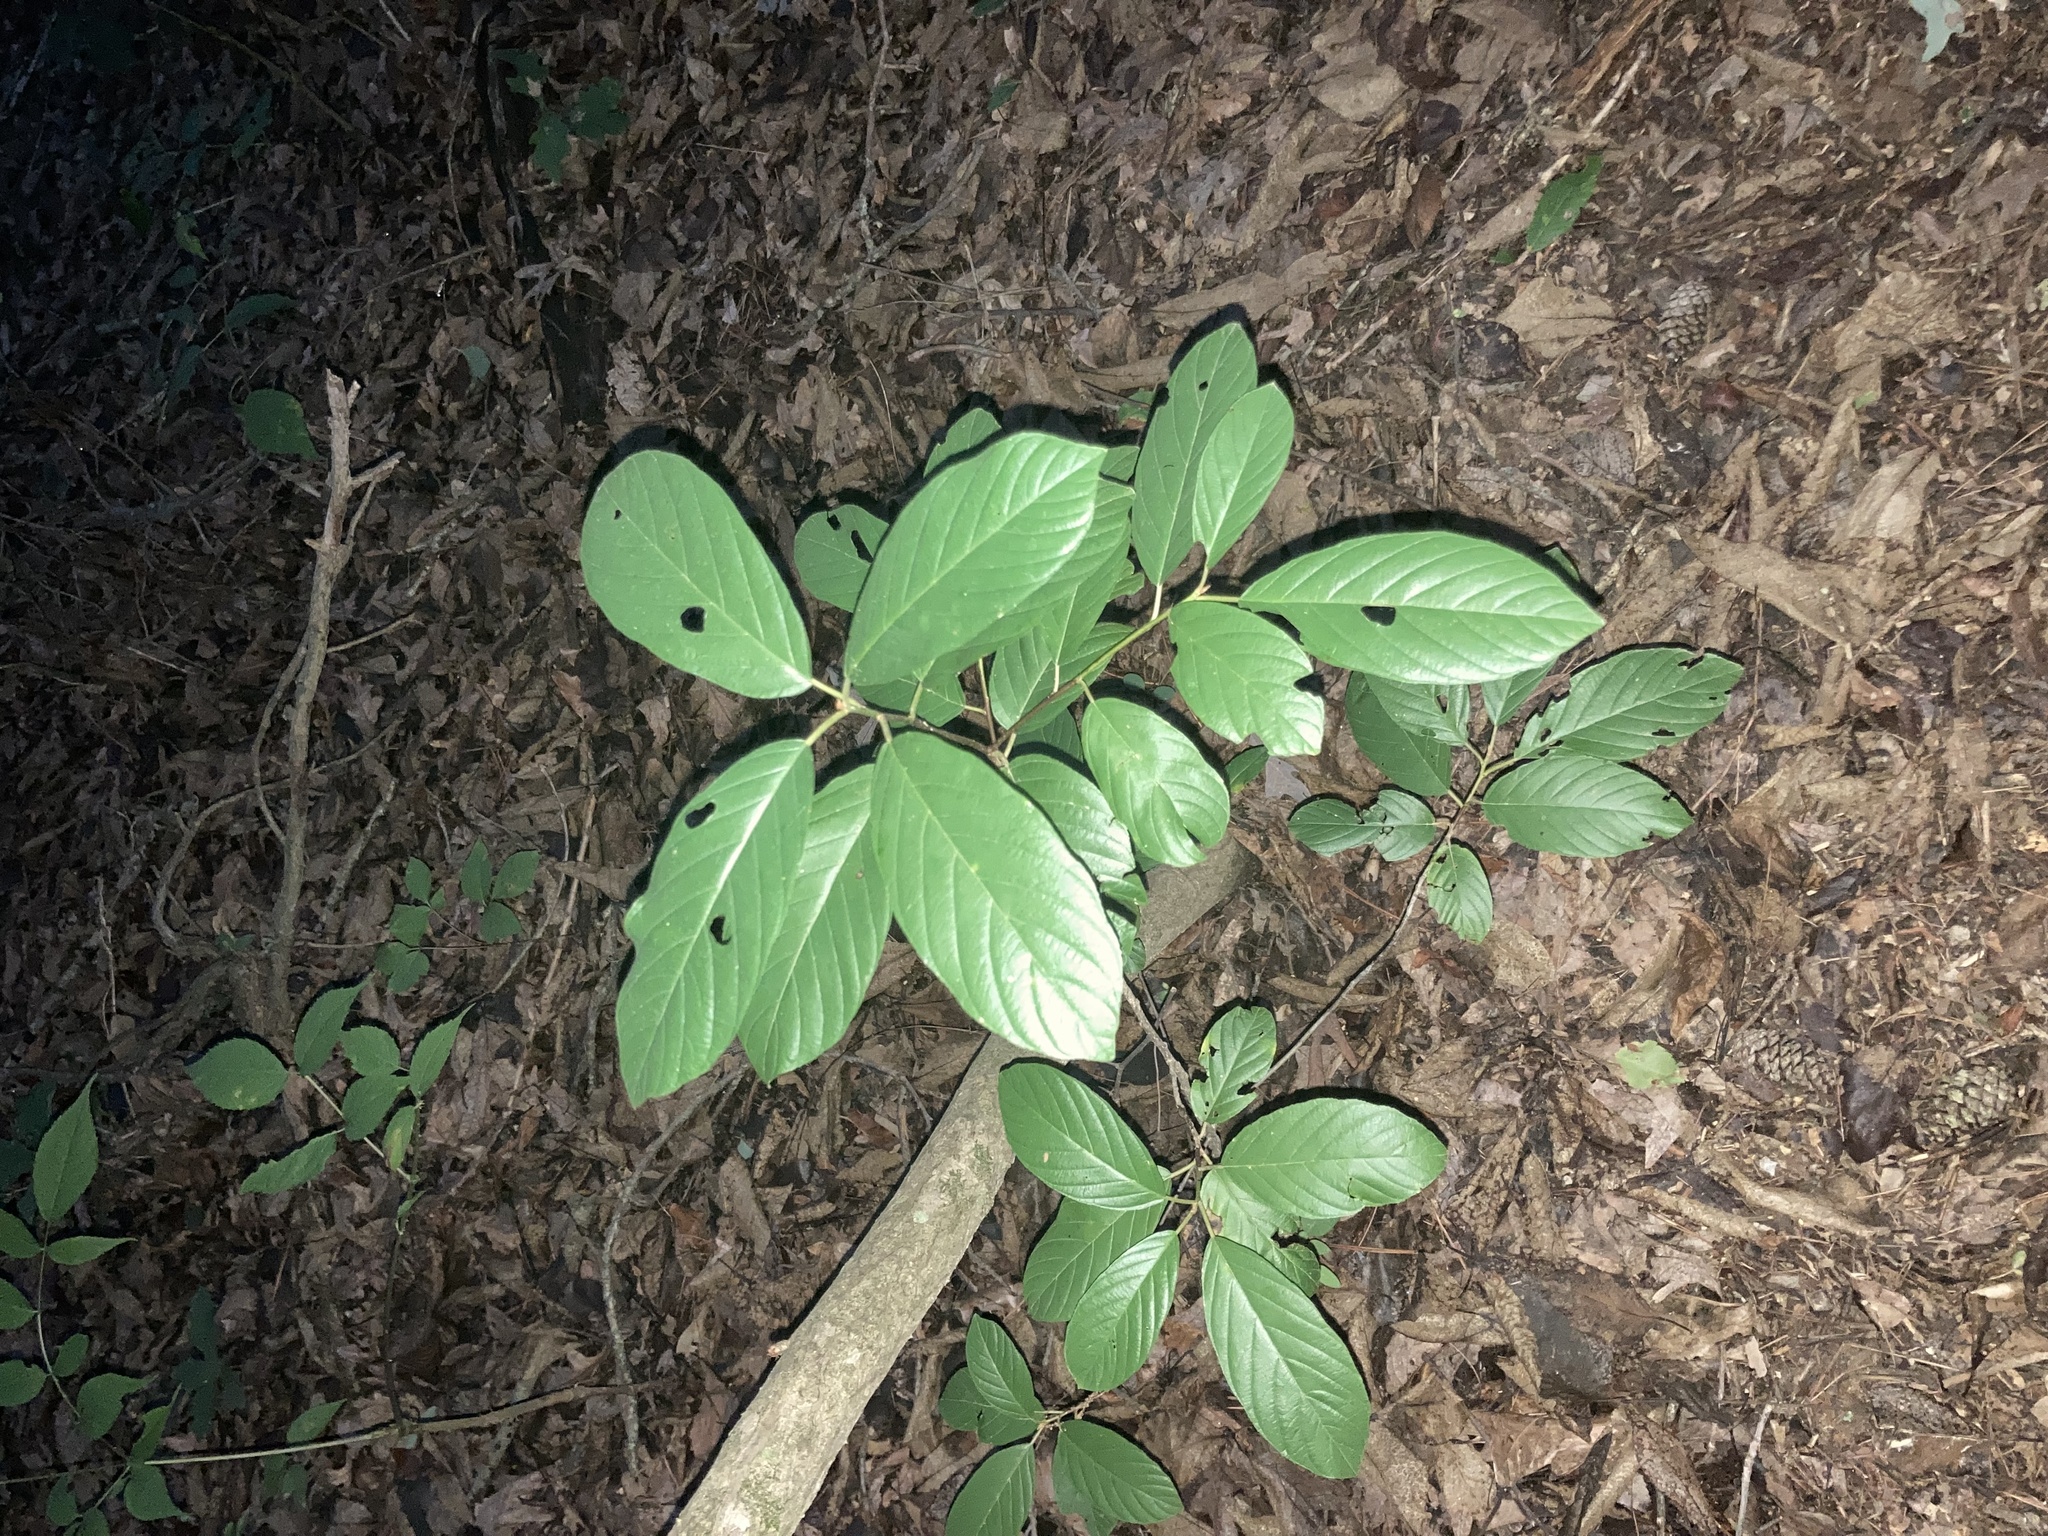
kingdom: Plantae
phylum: Tracheophyta
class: Magnoliopsida
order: Rosales
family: Rhamnaceae
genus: Frangula
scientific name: Frangula caroliniana
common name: Carolina buckthorn
